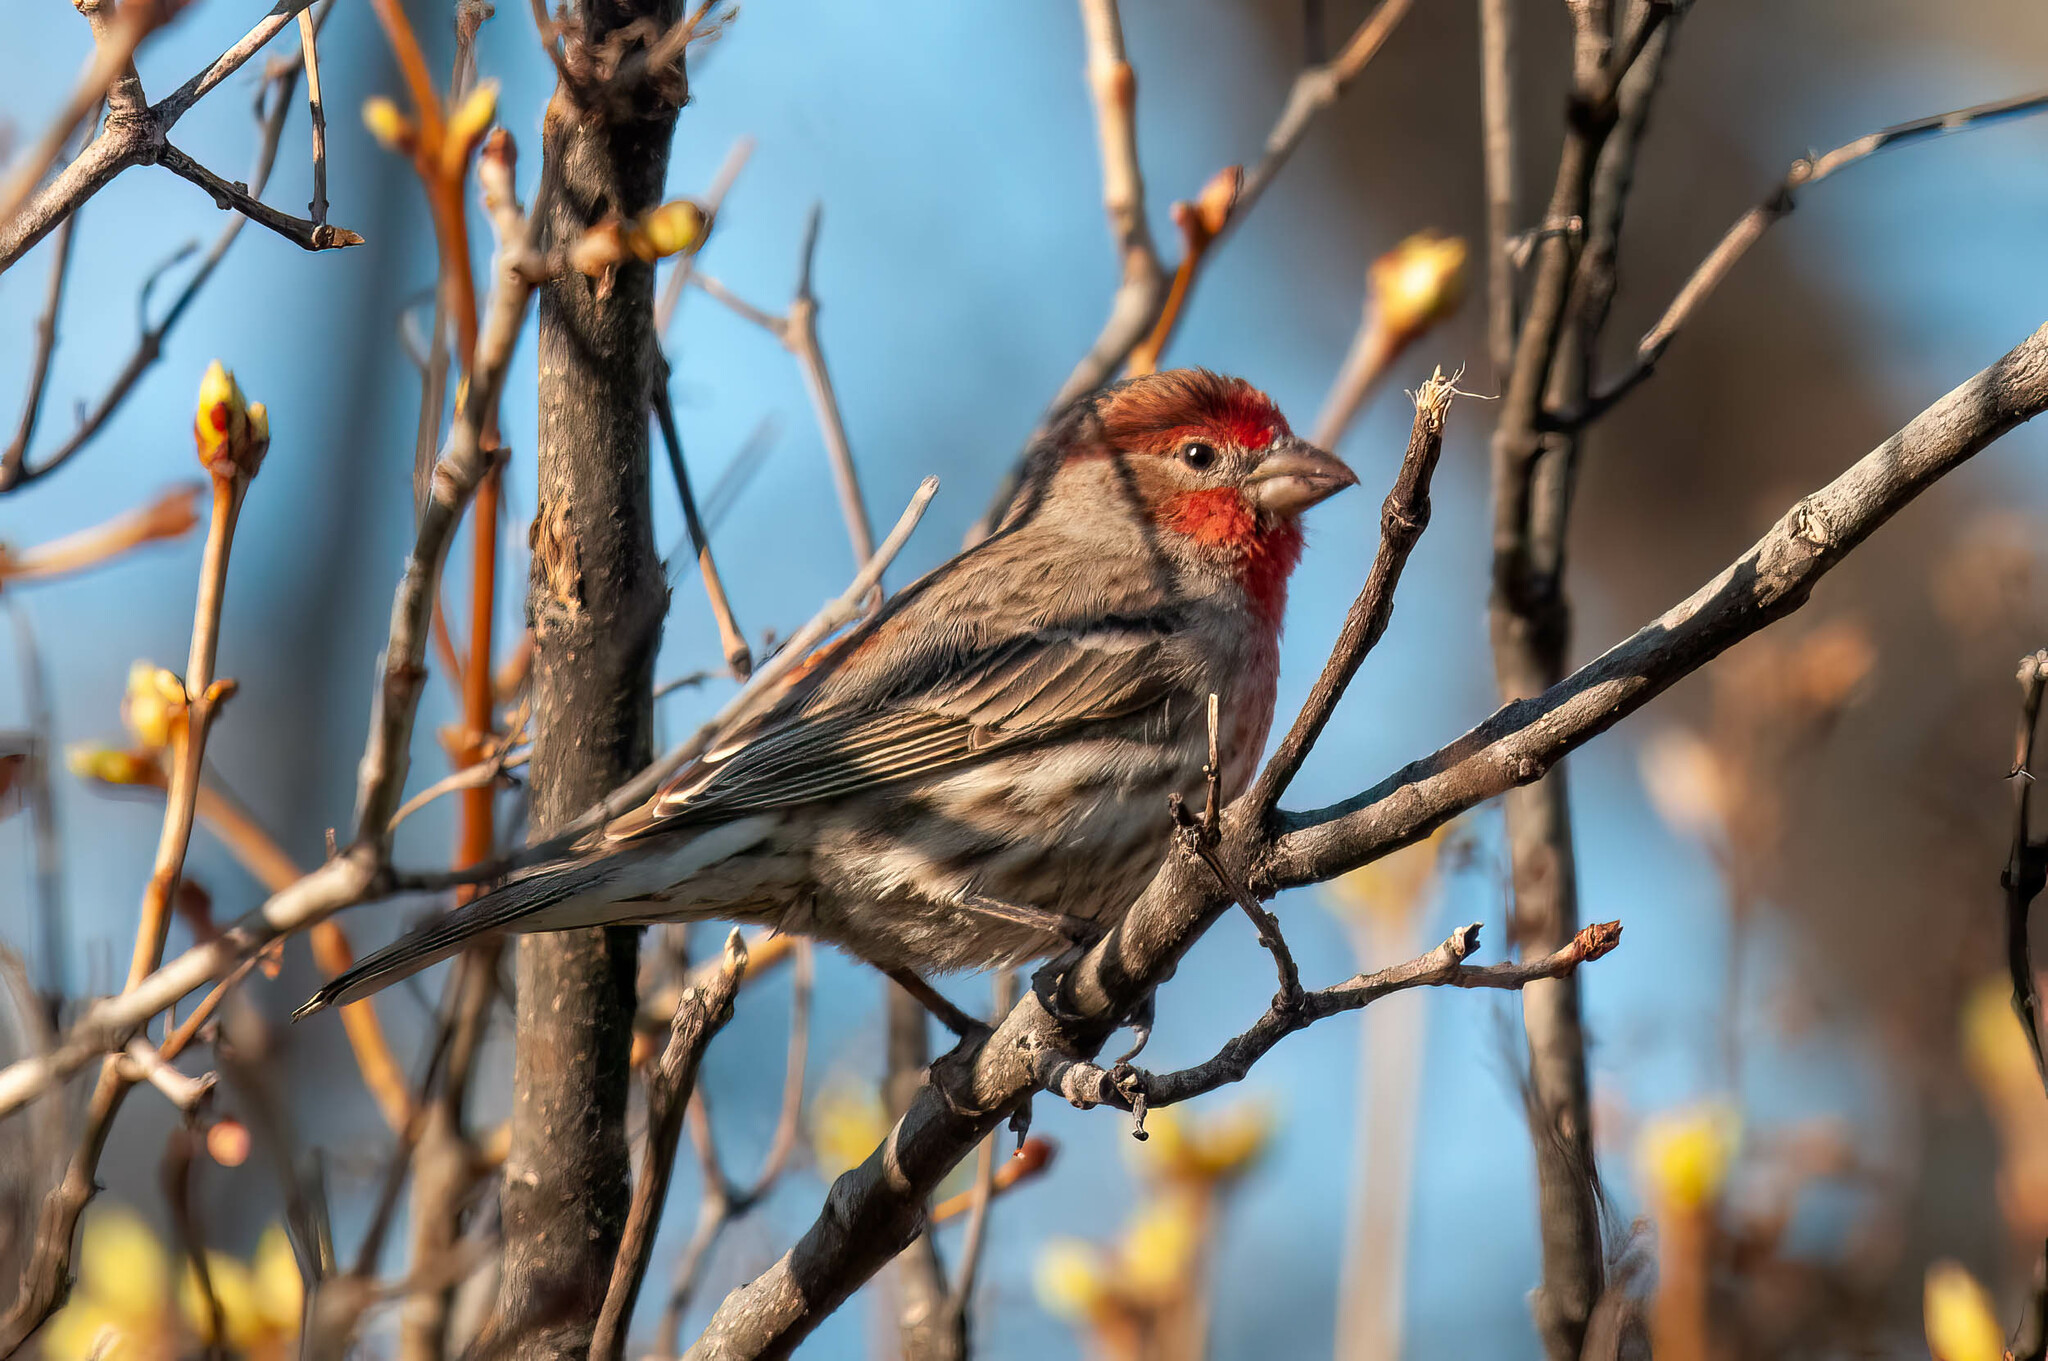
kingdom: Animalia
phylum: Chordata
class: Aves
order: Passeriformes
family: Fringillidae
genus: Haemorhous
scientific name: Haemorhous mexicanus
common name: House finch
